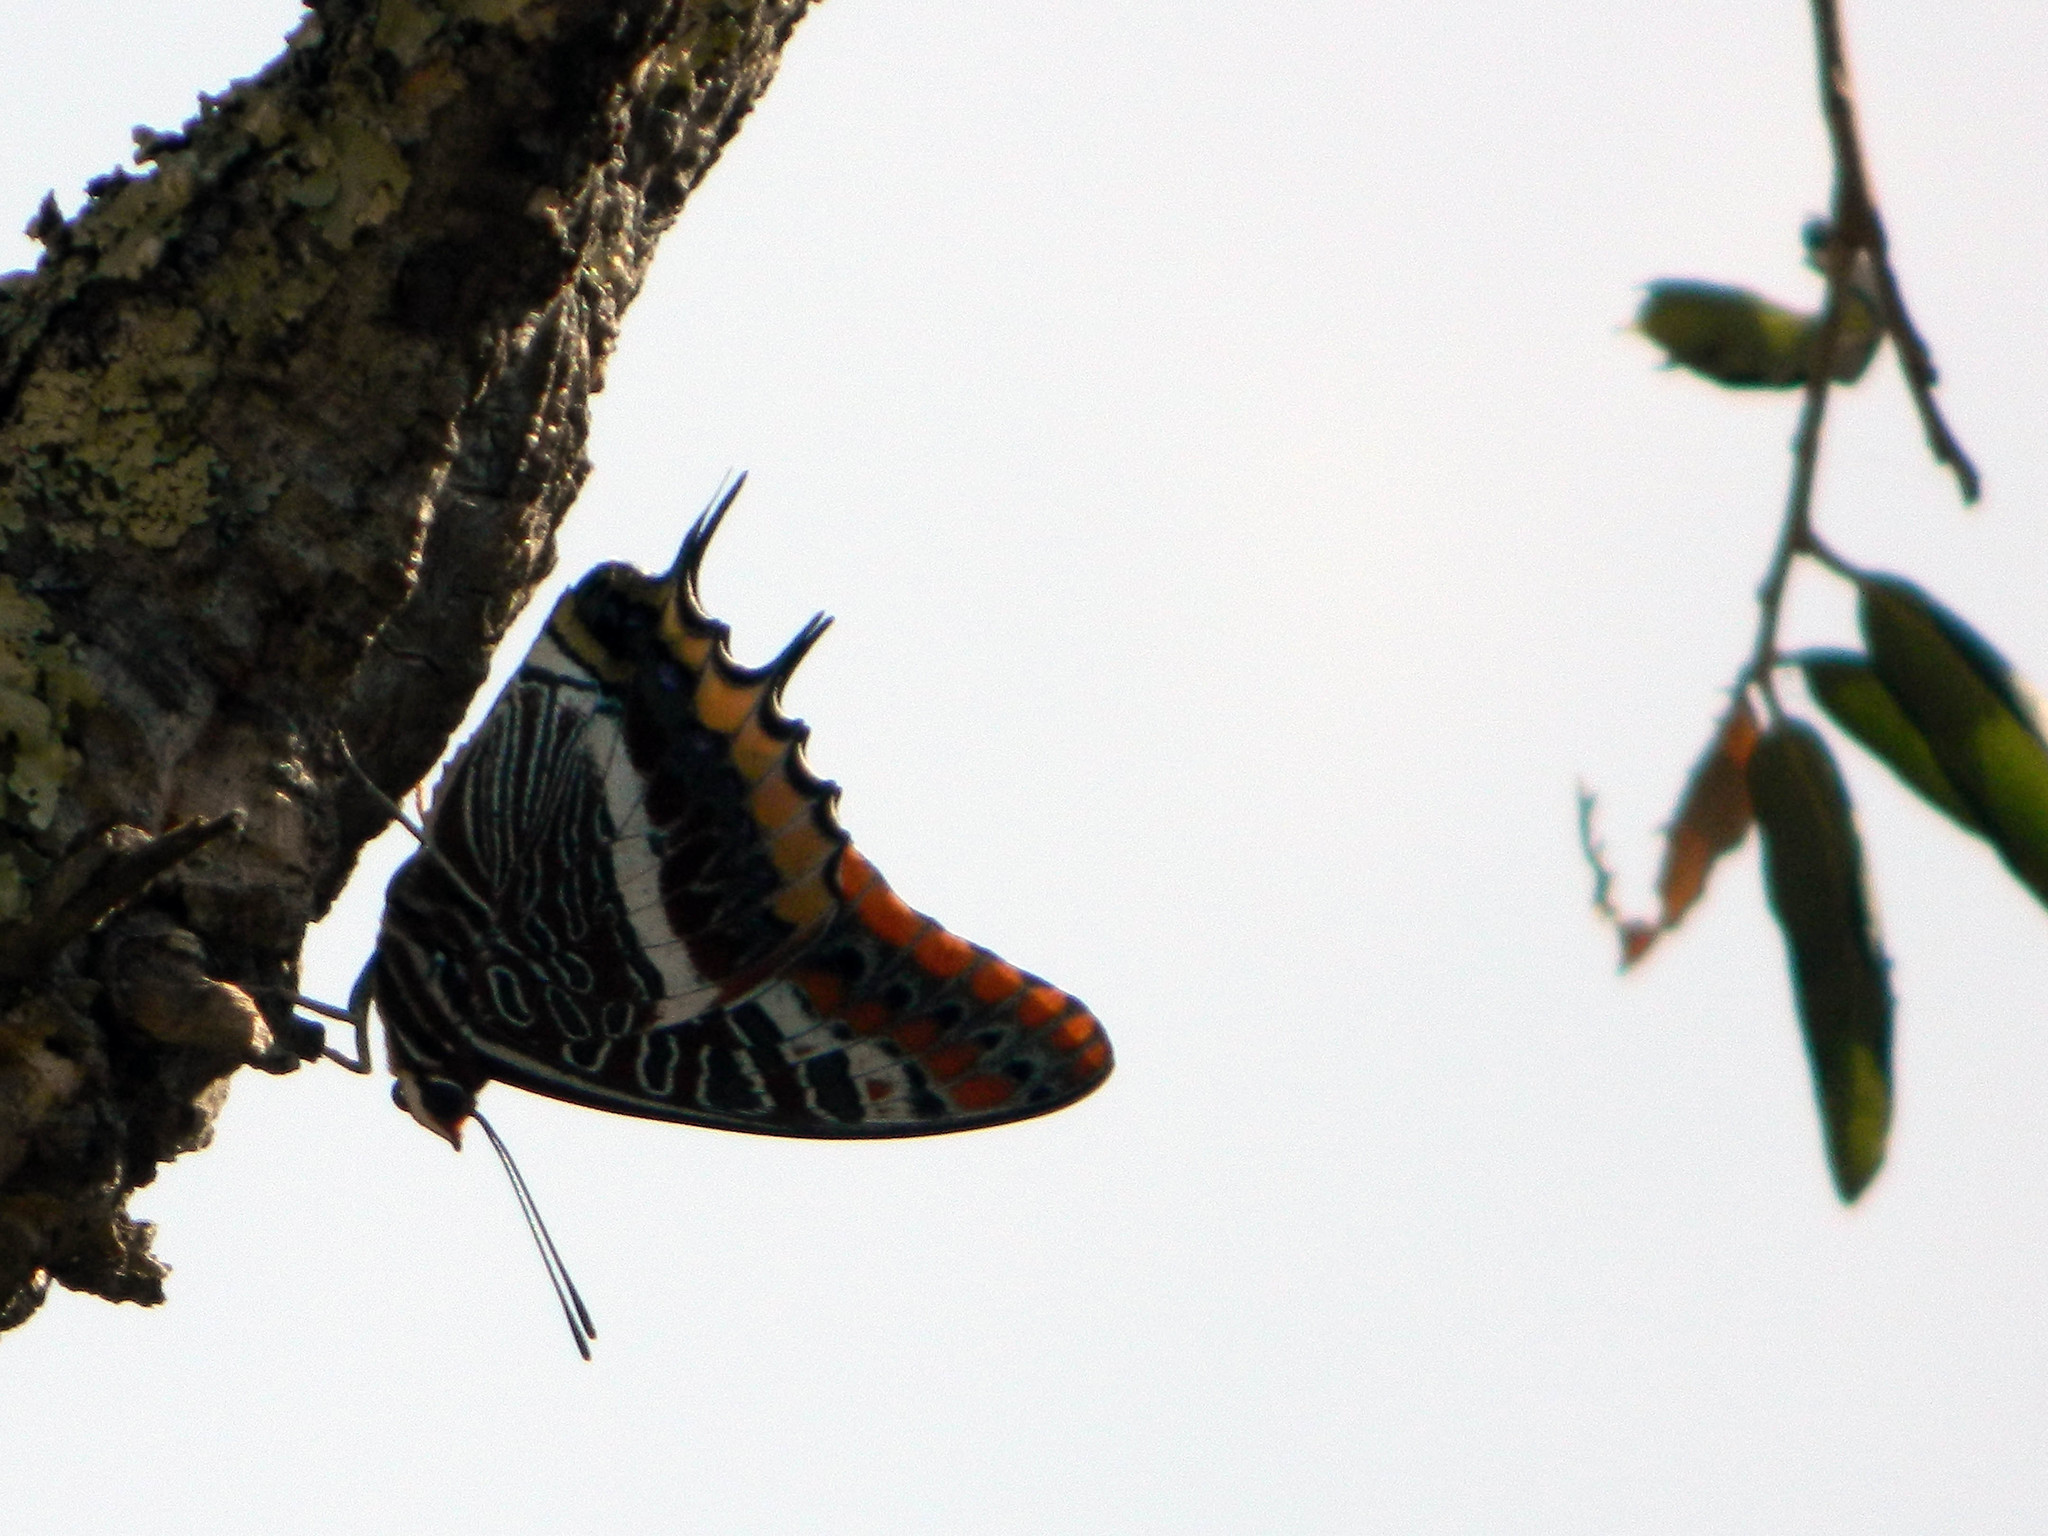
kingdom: Animalia
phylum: Arthropoda
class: Insecta
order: Lepidoptera
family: Nymphalidae
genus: Charaxes
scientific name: Charaxes jasius
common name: Two tailed pasha
